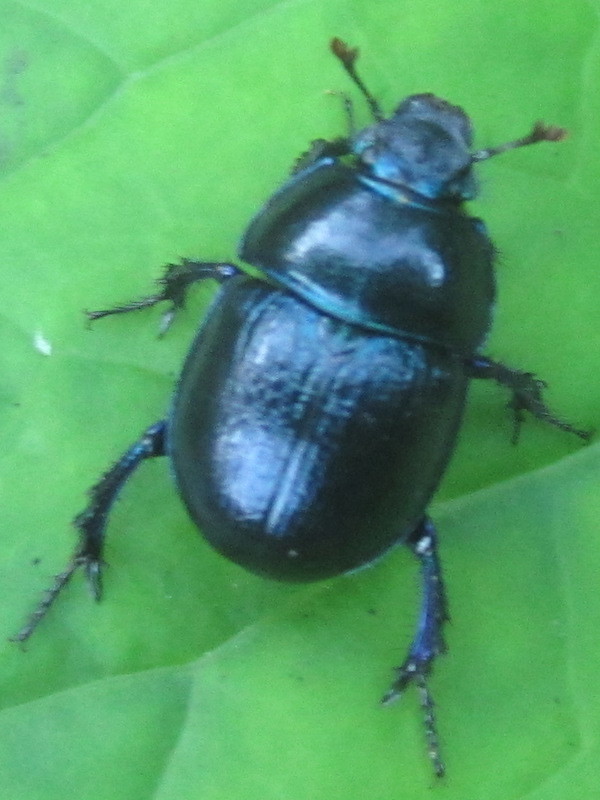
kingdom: Animalia
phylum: Arthropoda
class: Insecta
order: Coleoptera
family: Geotrupidae
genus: Anoplotrupes
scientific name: Anoplotrupes stercorosus
